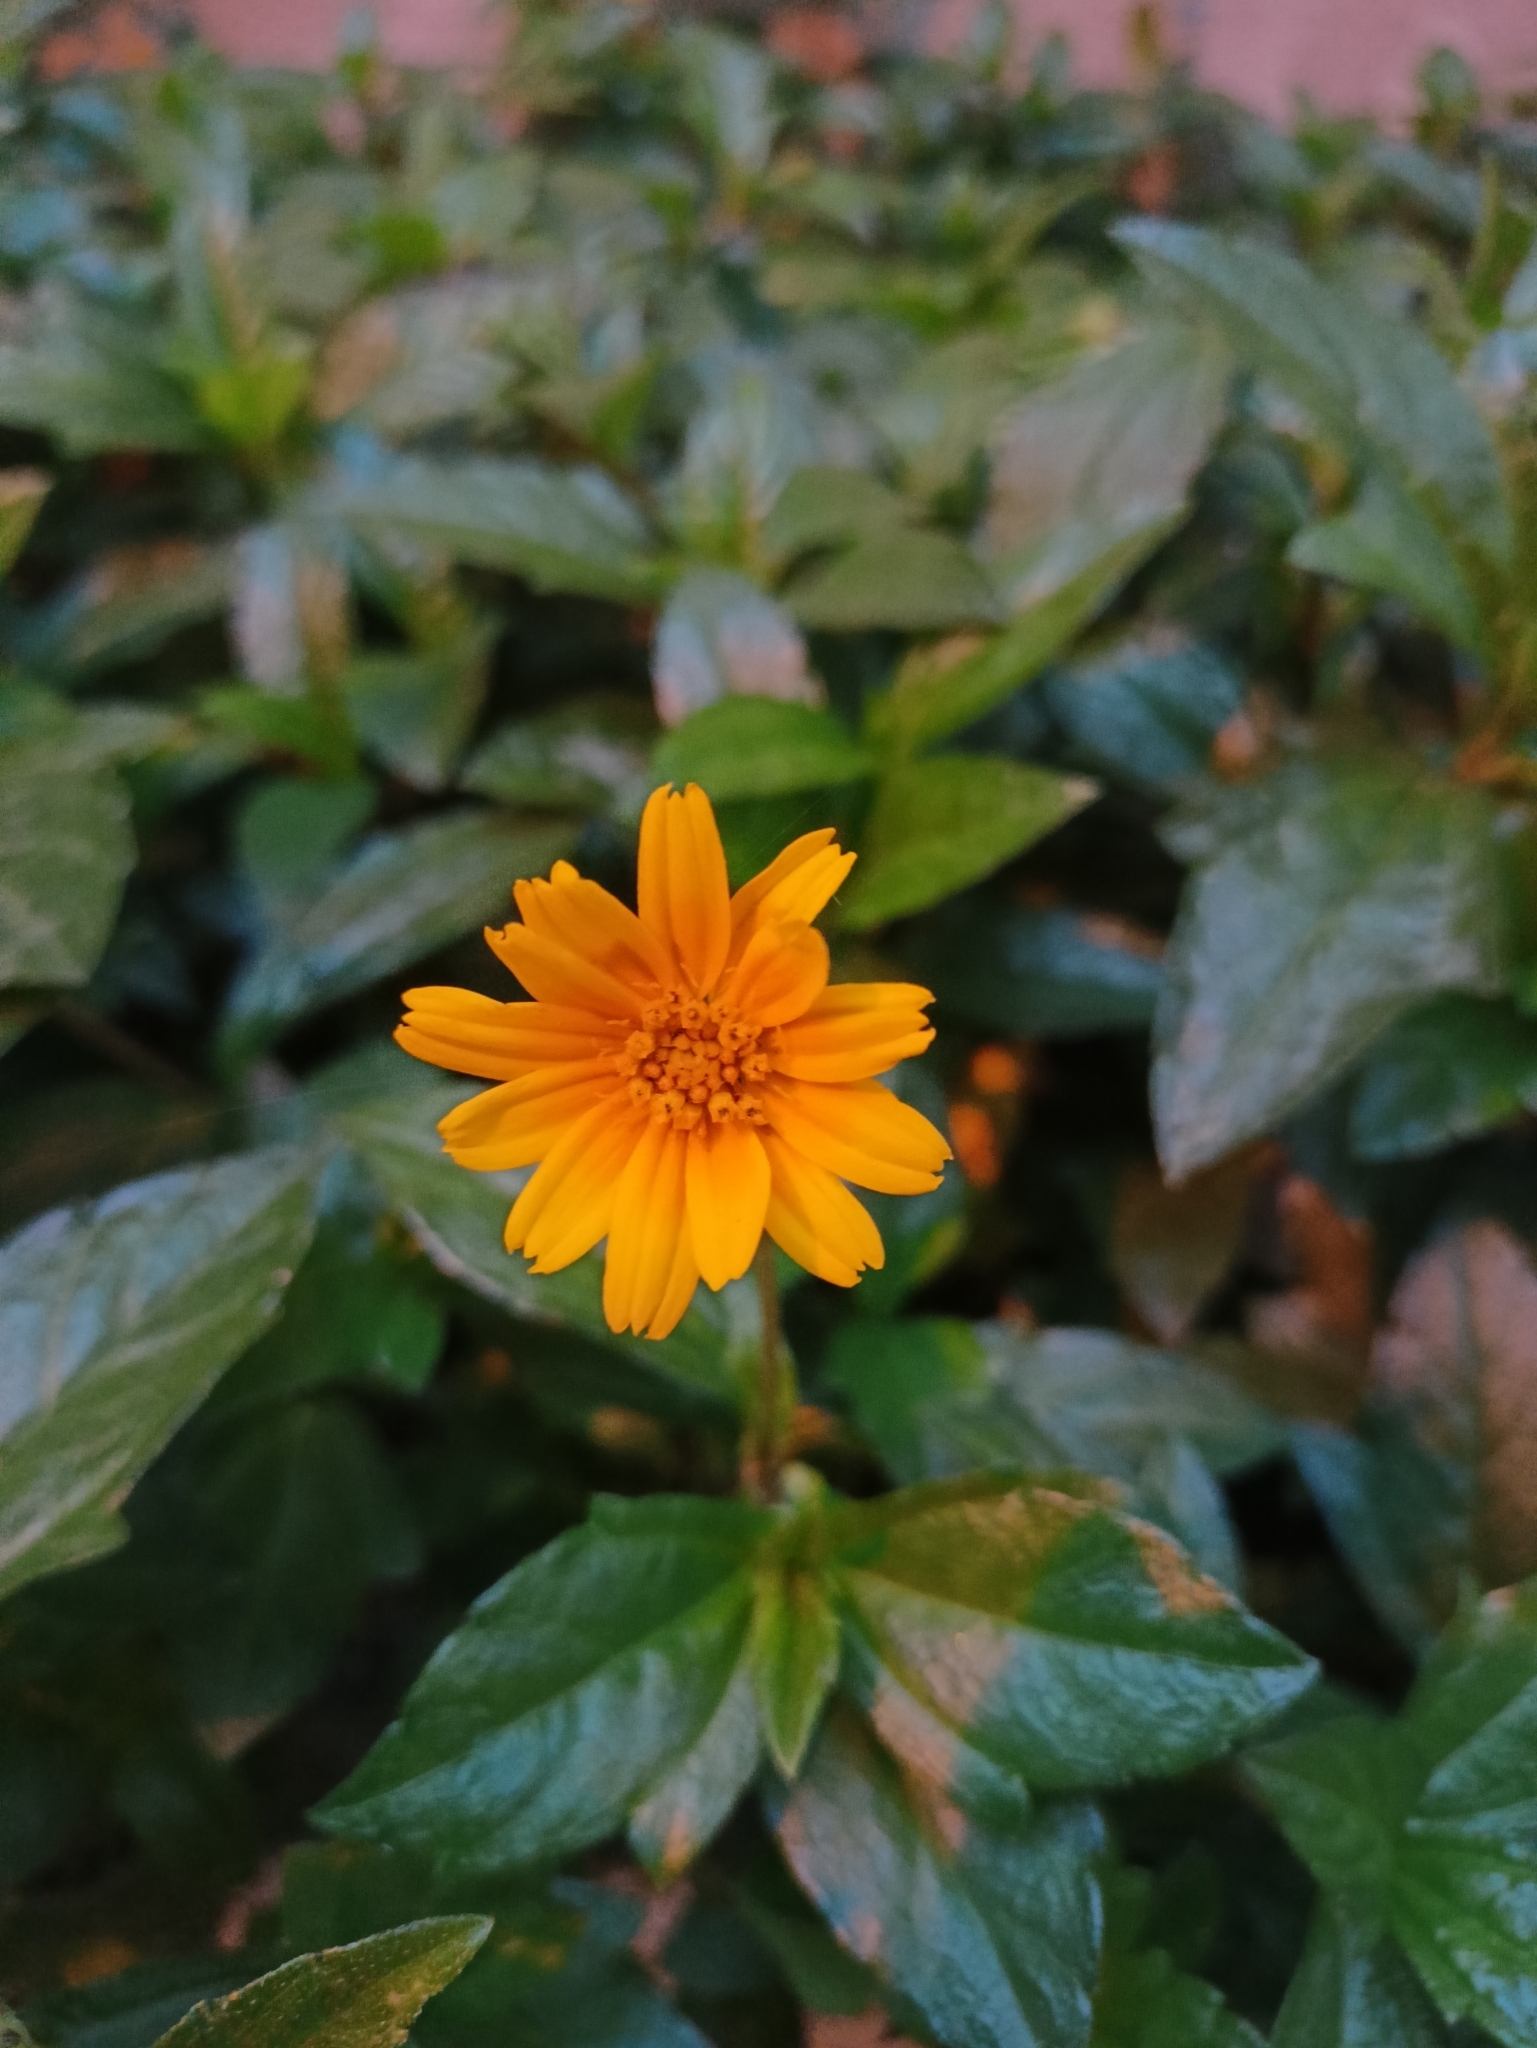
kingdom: Plantae
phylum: Tracheophyta
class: Magnoliopsida
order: Asterales
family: Asteraceae
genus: Sphagneticola
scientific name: Sphagneticola trilobata
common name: Bay biscayne creeping-oxeye
